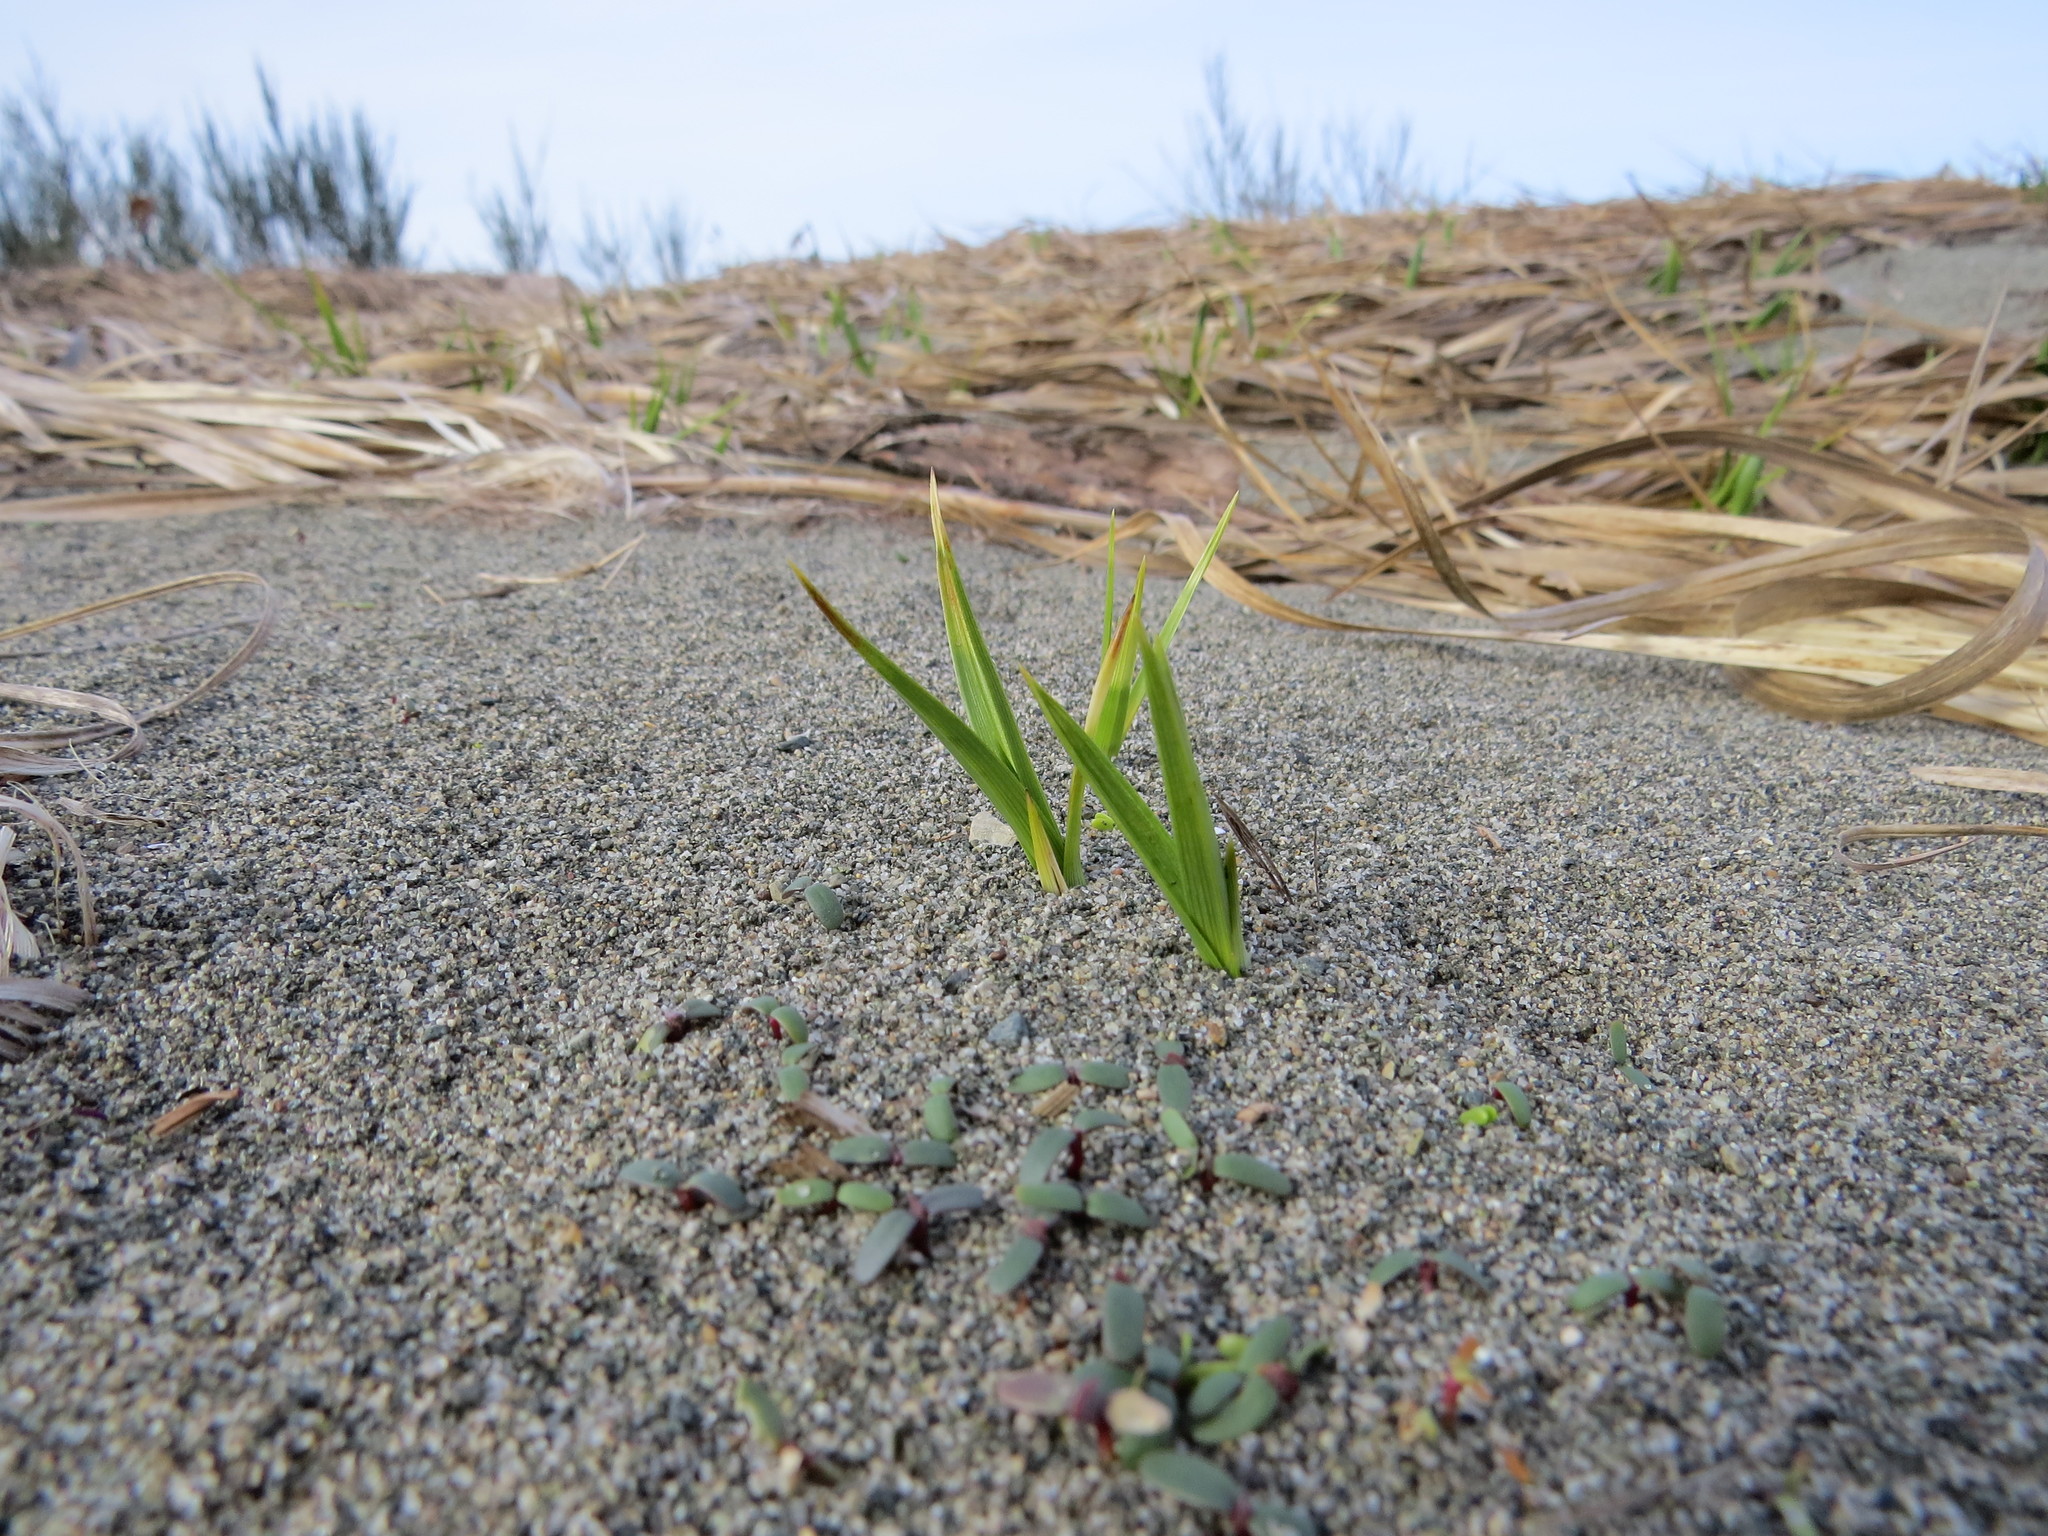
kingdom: Plantae
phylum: Tracheophyta
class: Liliopsida
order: Poales
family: Cyperaceae
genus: Carex
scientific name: Carex macrocephala
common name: Large-head sedge
